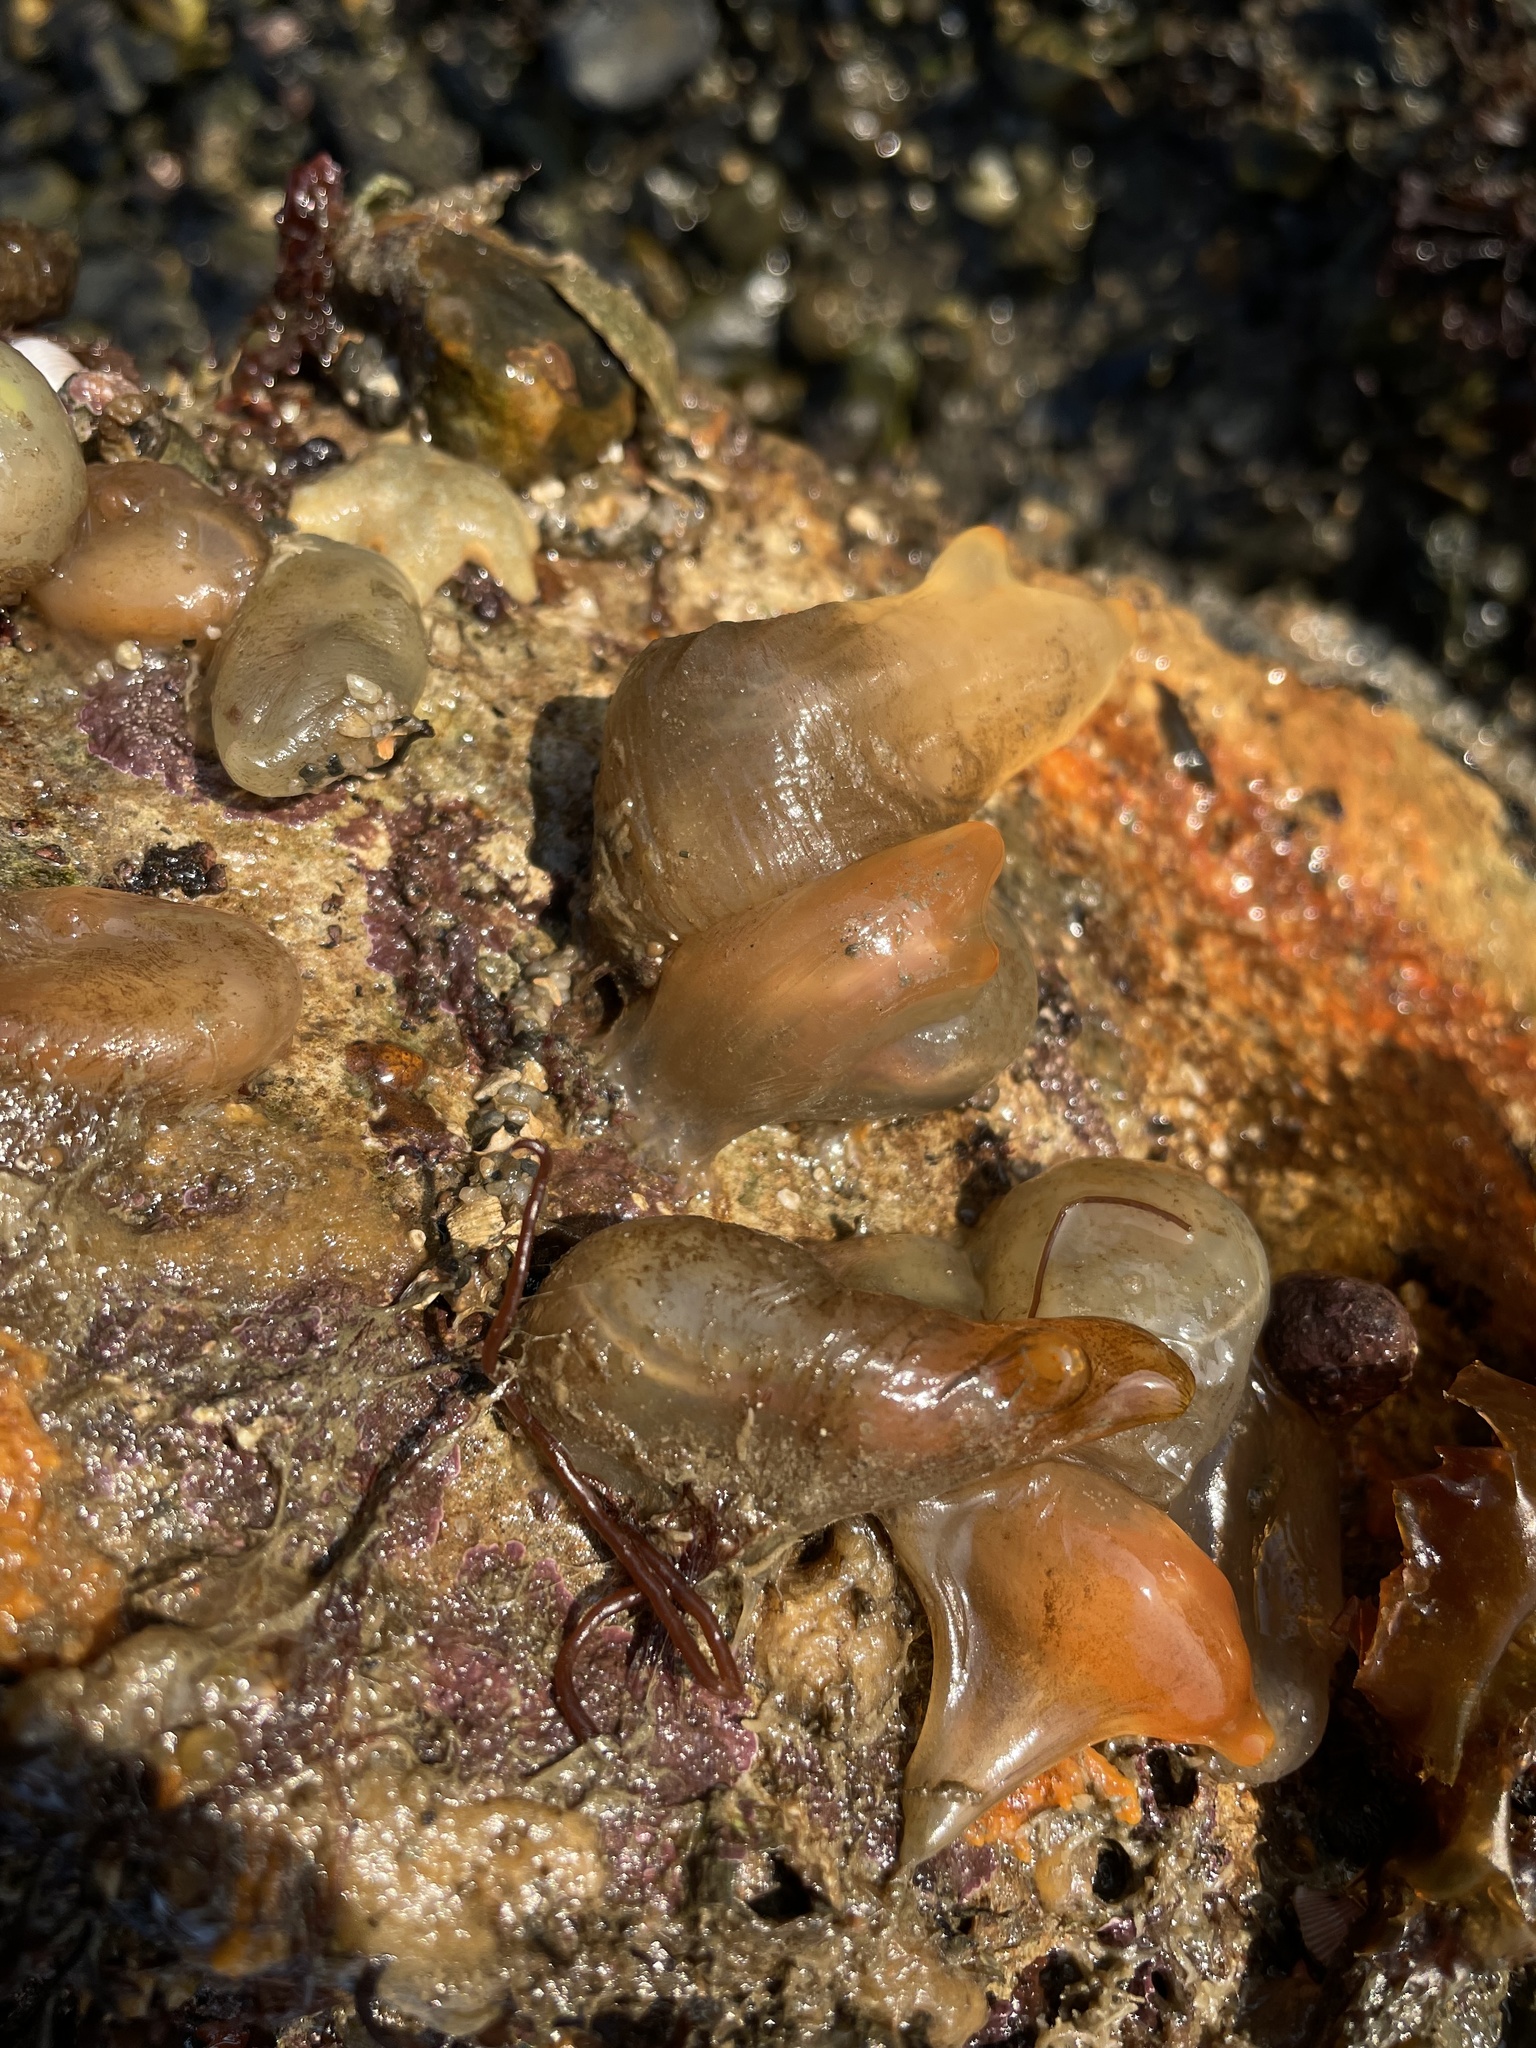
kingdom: Animalia
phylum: Chordata
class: Ascidiacea
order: Phlebobranchia
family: Cionidae
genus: Ciona
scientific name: Ciona intestinalis
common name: Vase tunicate
